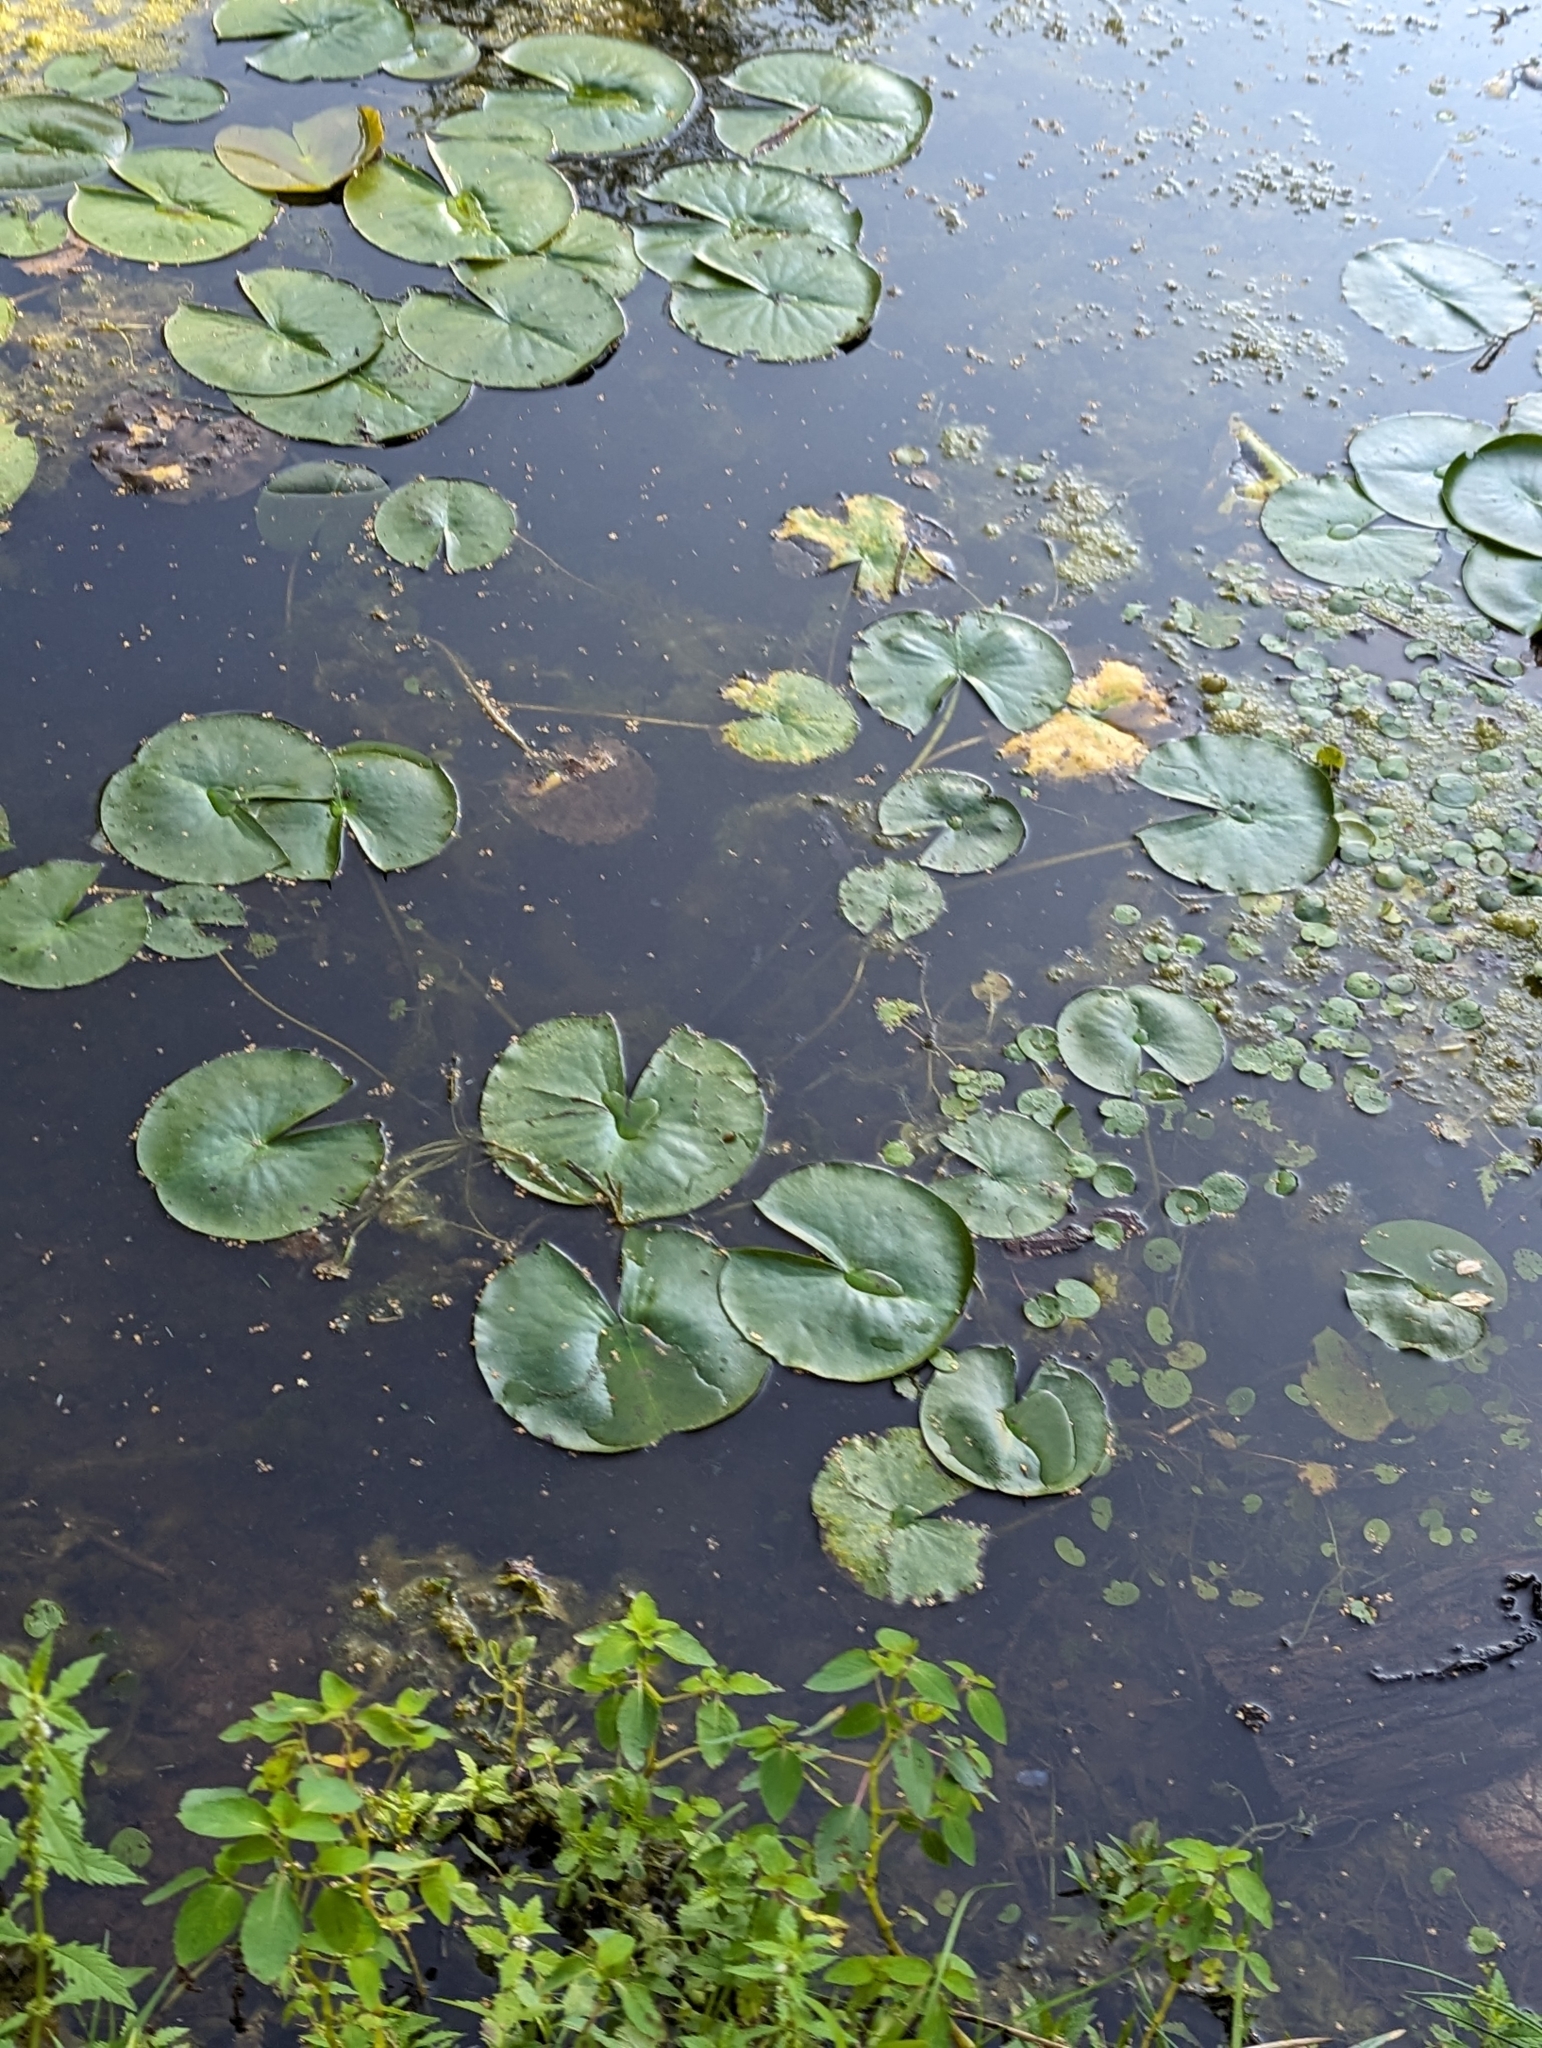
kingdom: Plantae
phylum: Tracheophyta
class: Magnoliopsida
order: Nymphaeales
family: Nymphaeaceae
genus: Nymphaea
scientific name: Nymphaea odorata
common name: Fragrant water-lily
